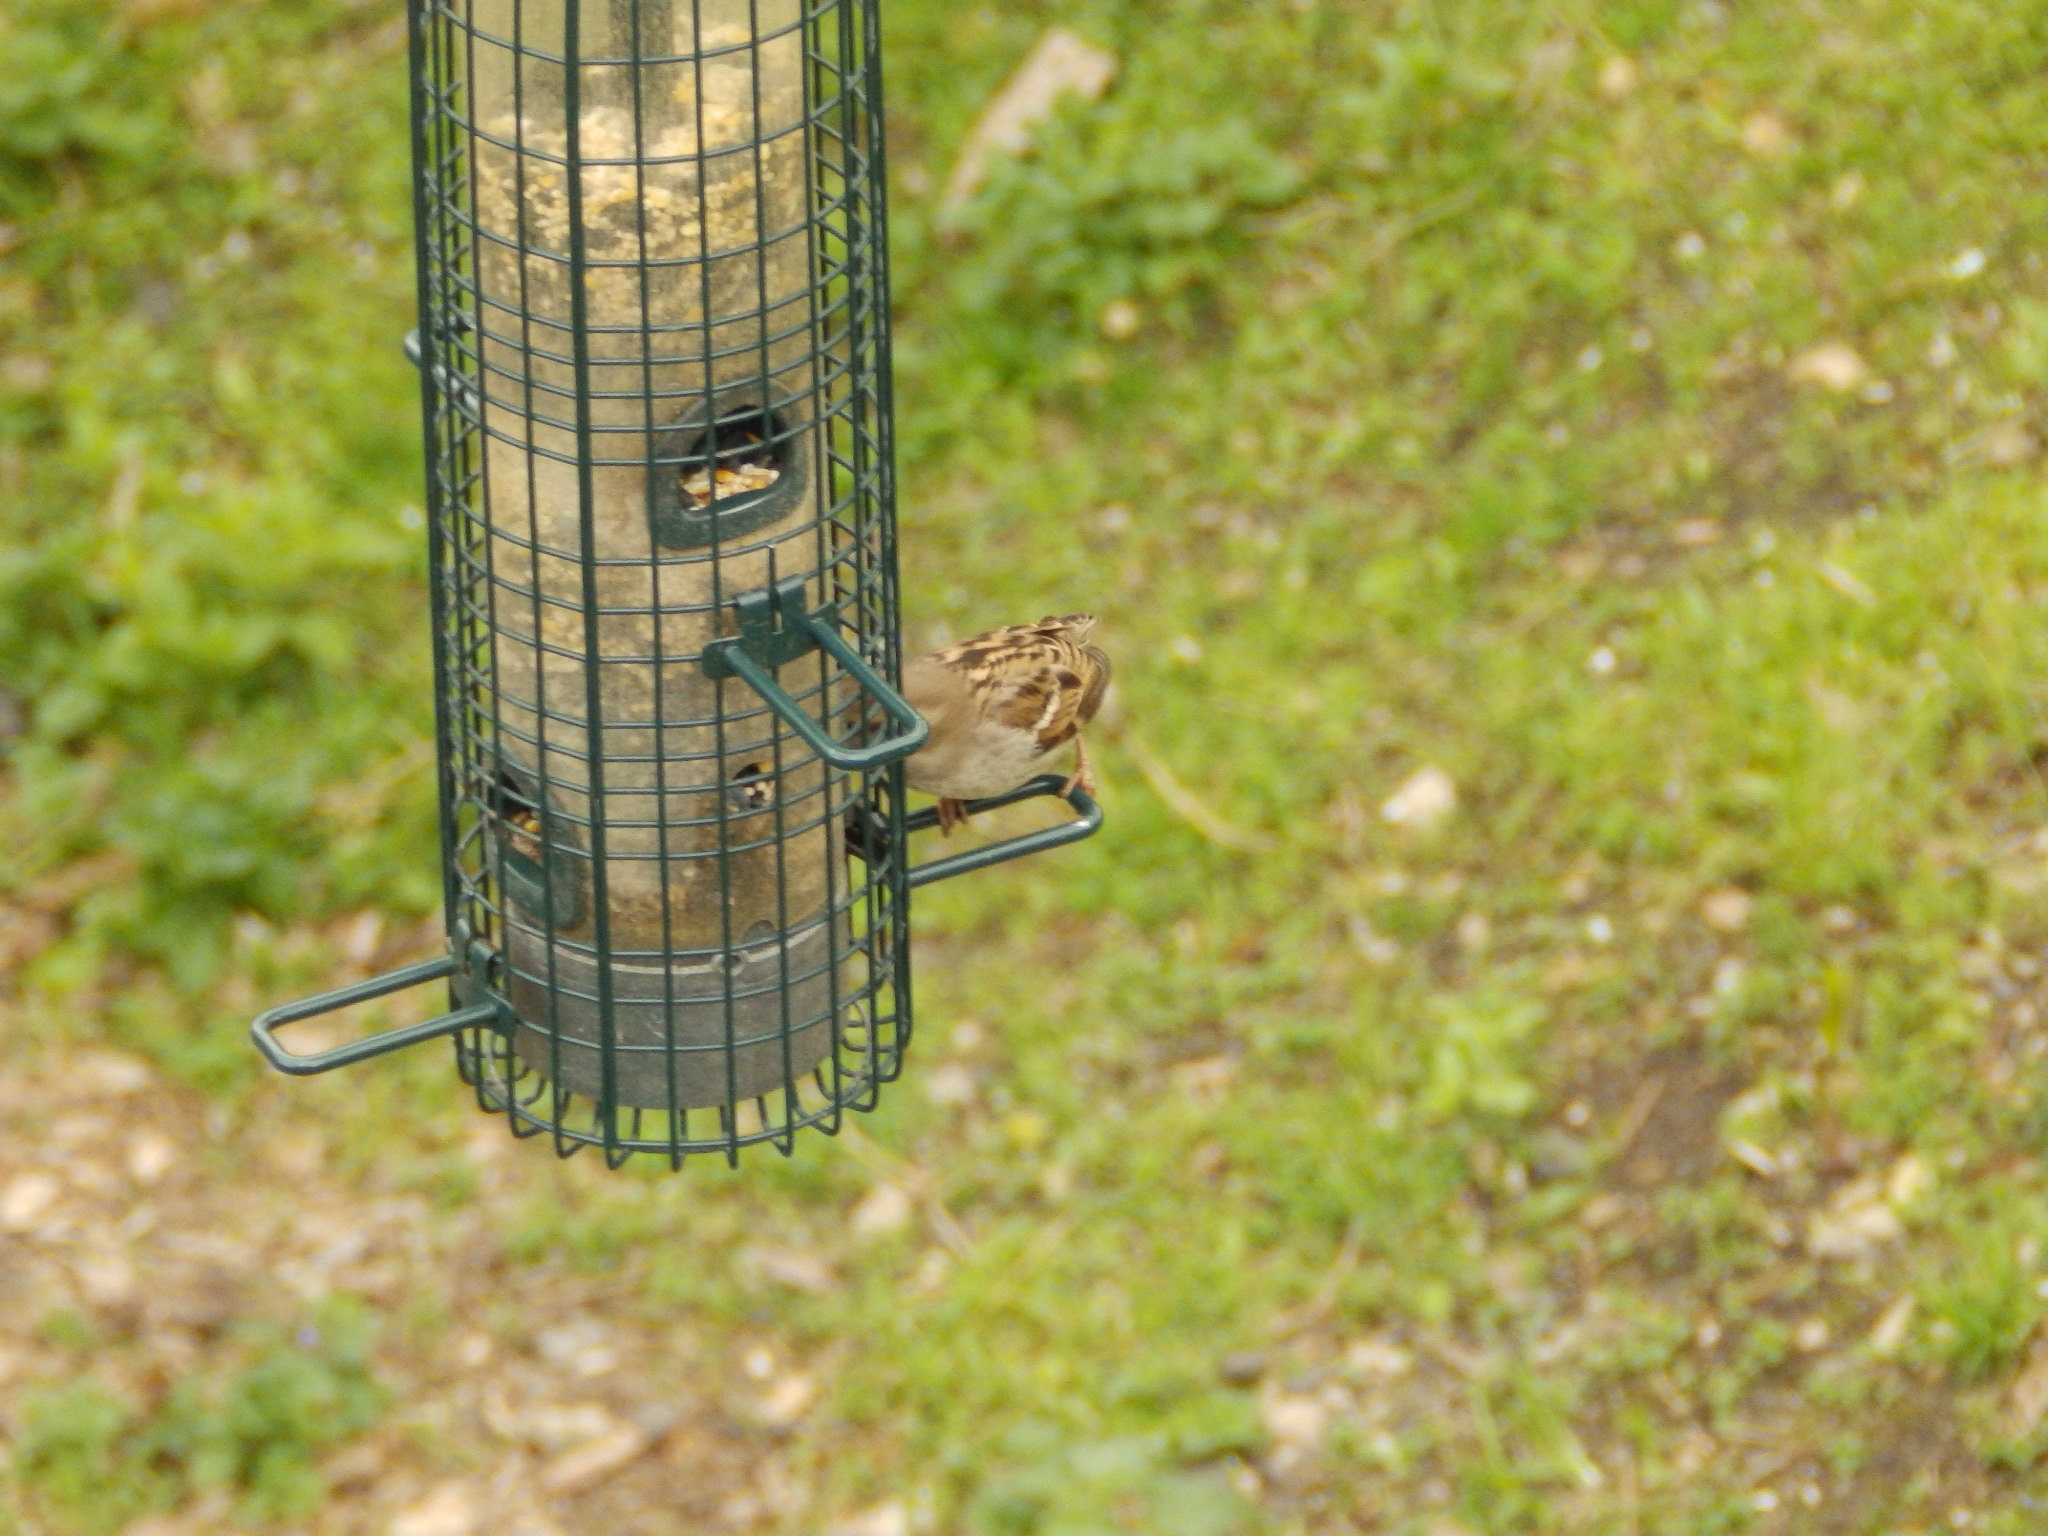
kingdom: Animalia
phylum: Chordata
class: Aves
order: Passeriformes
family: Passeridae
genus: Passer
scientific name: Passer domesticus
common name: House sparrow
